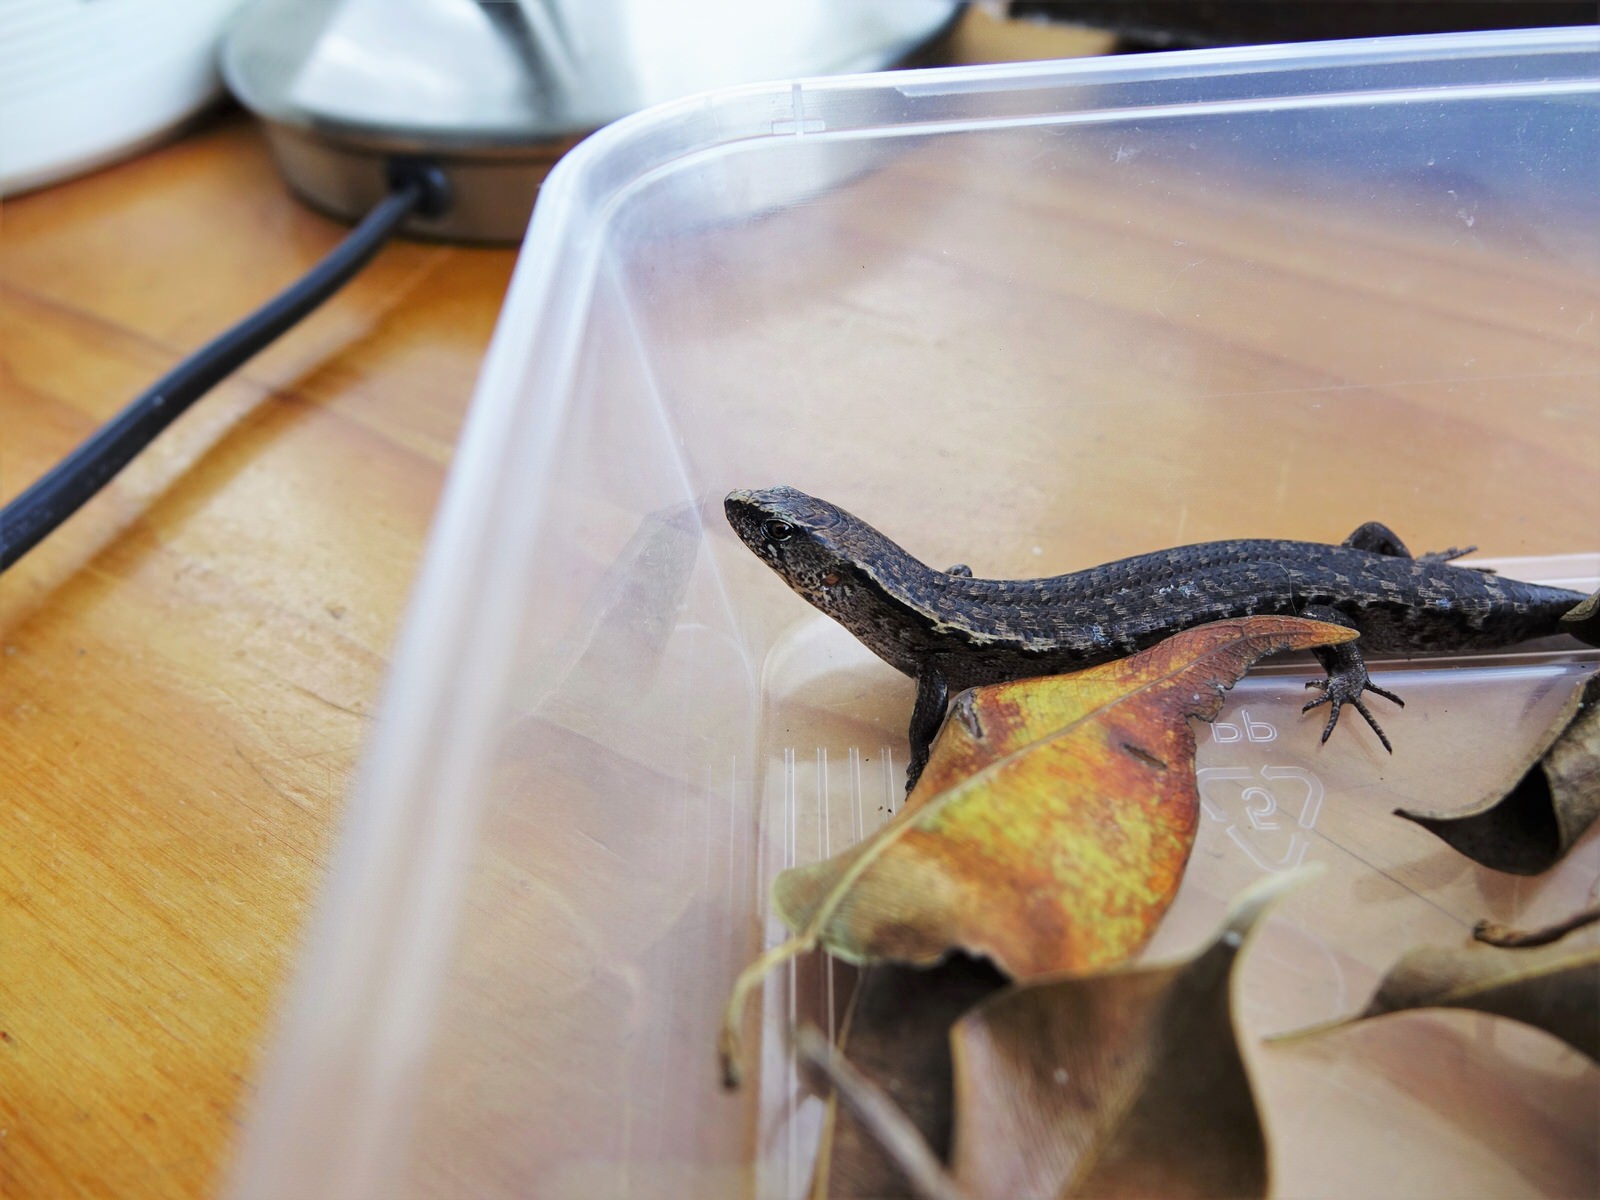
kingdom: Animalia
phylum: Chordata
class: Squamata
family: Scincidae
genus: Oligosoma
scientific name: Oligosoma ornatum
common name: Gray's ornate skink
